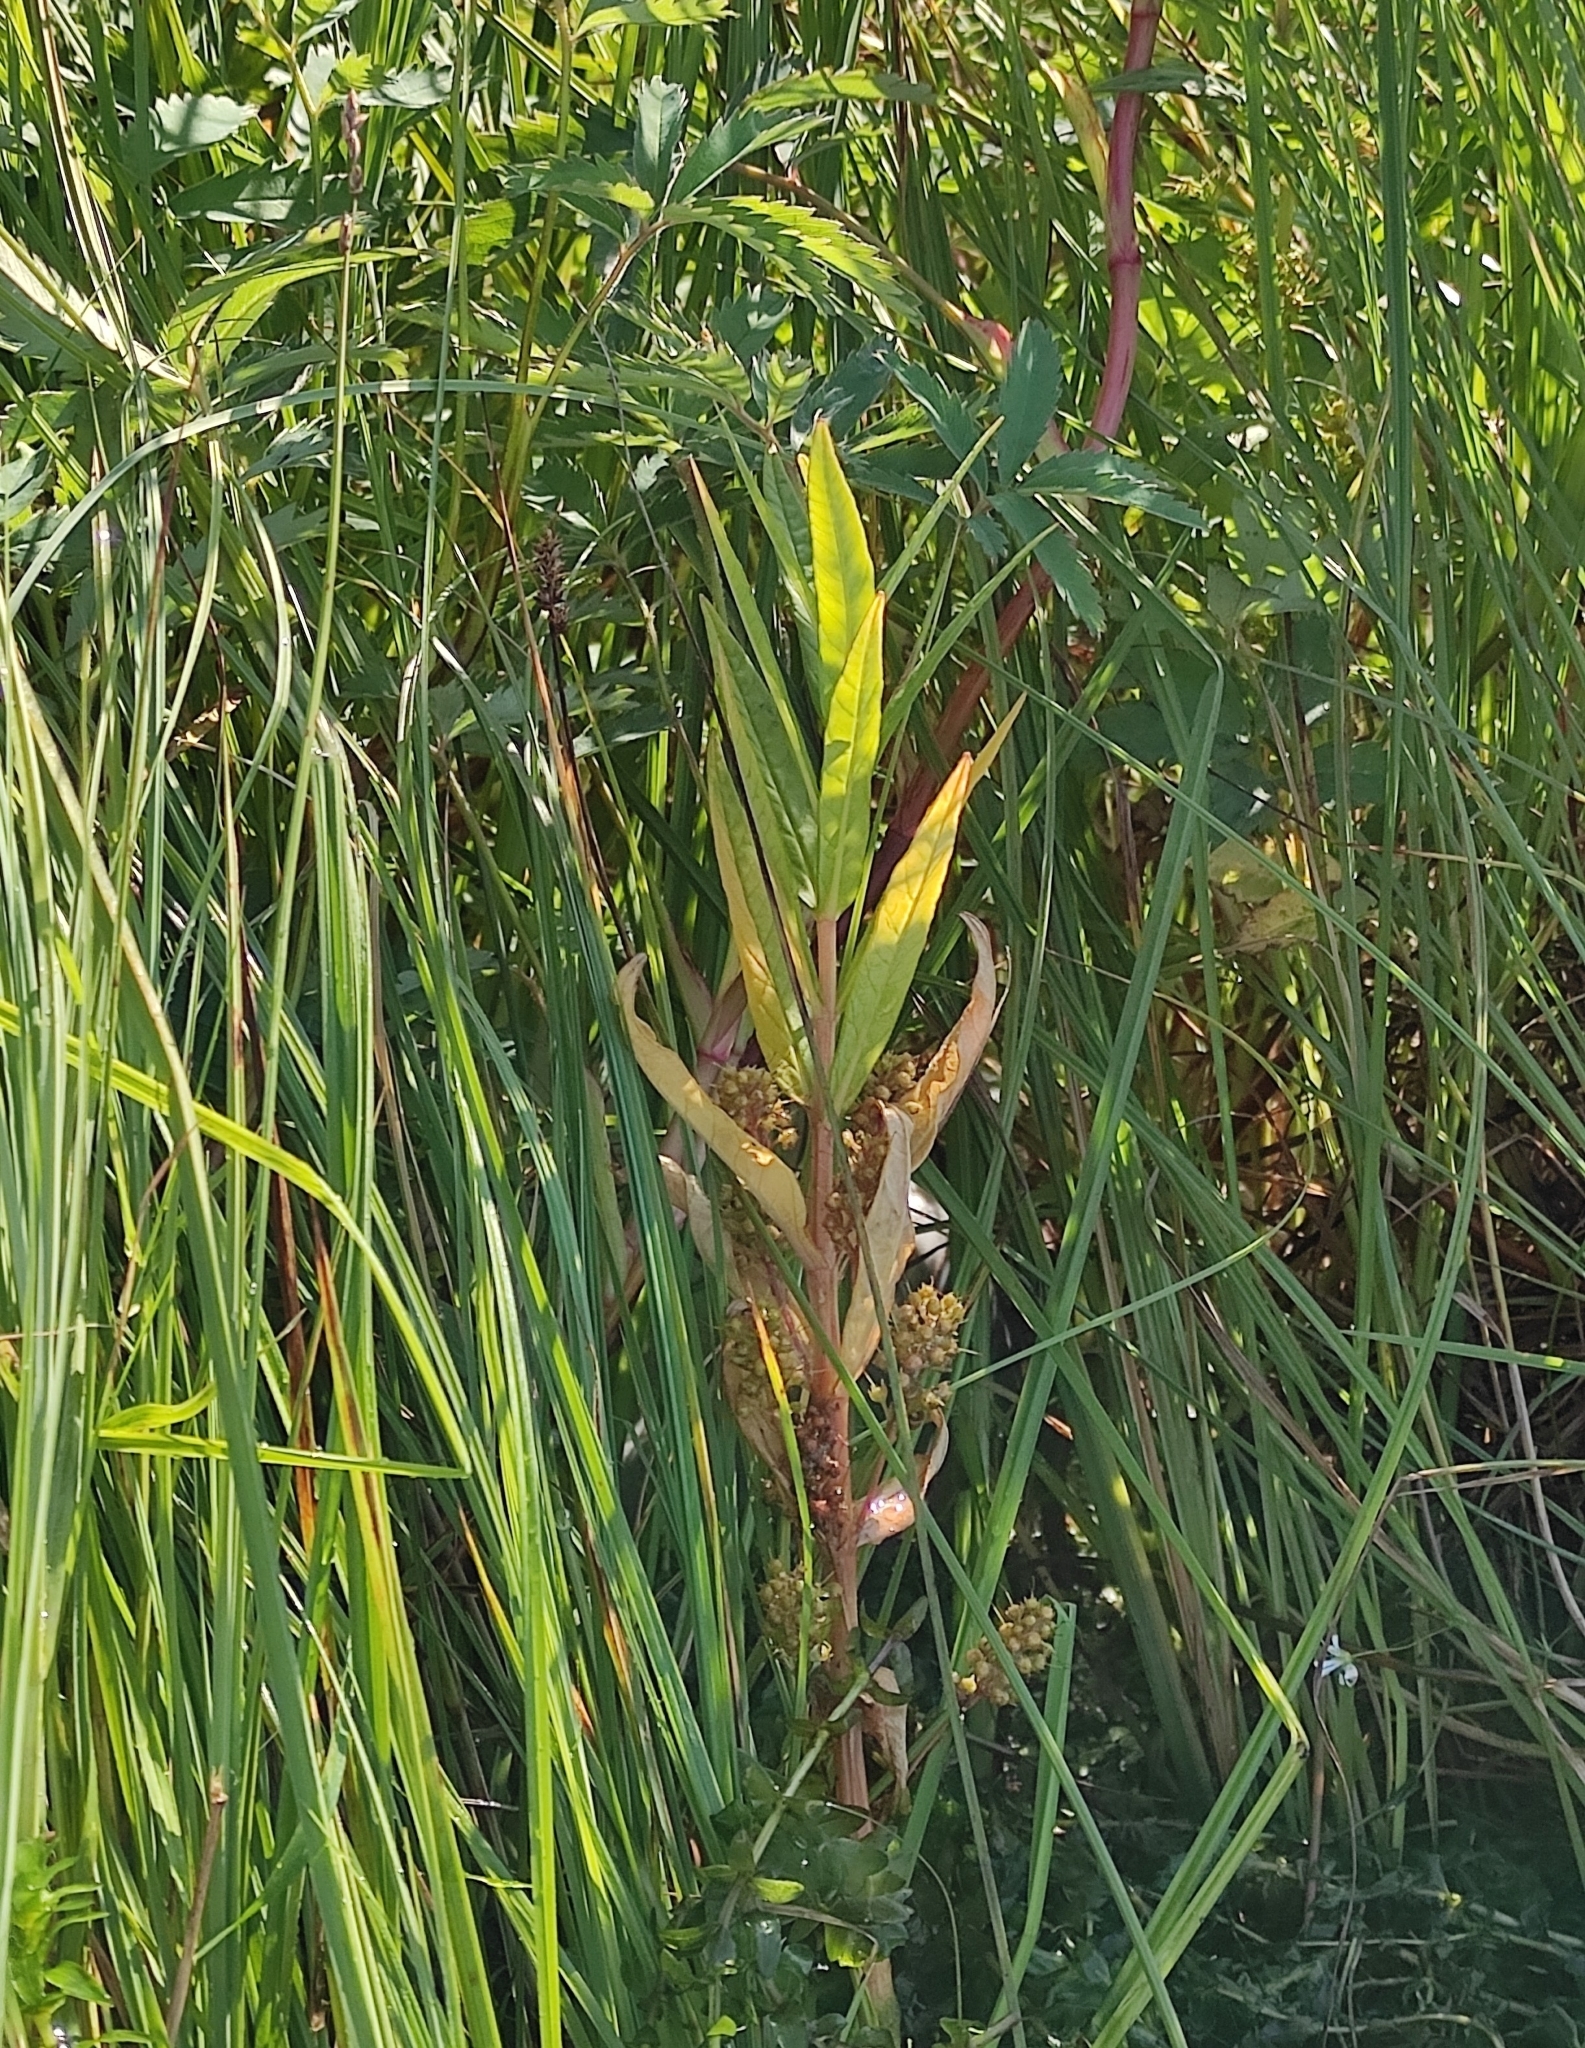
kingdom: Plantae
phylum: Tracheophyta
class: Magnoliopsida
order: Ericales
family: Primulaceae
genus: Lysimachia
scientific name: Lysimachia thyrsiflora
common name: Tufted loosestrife
